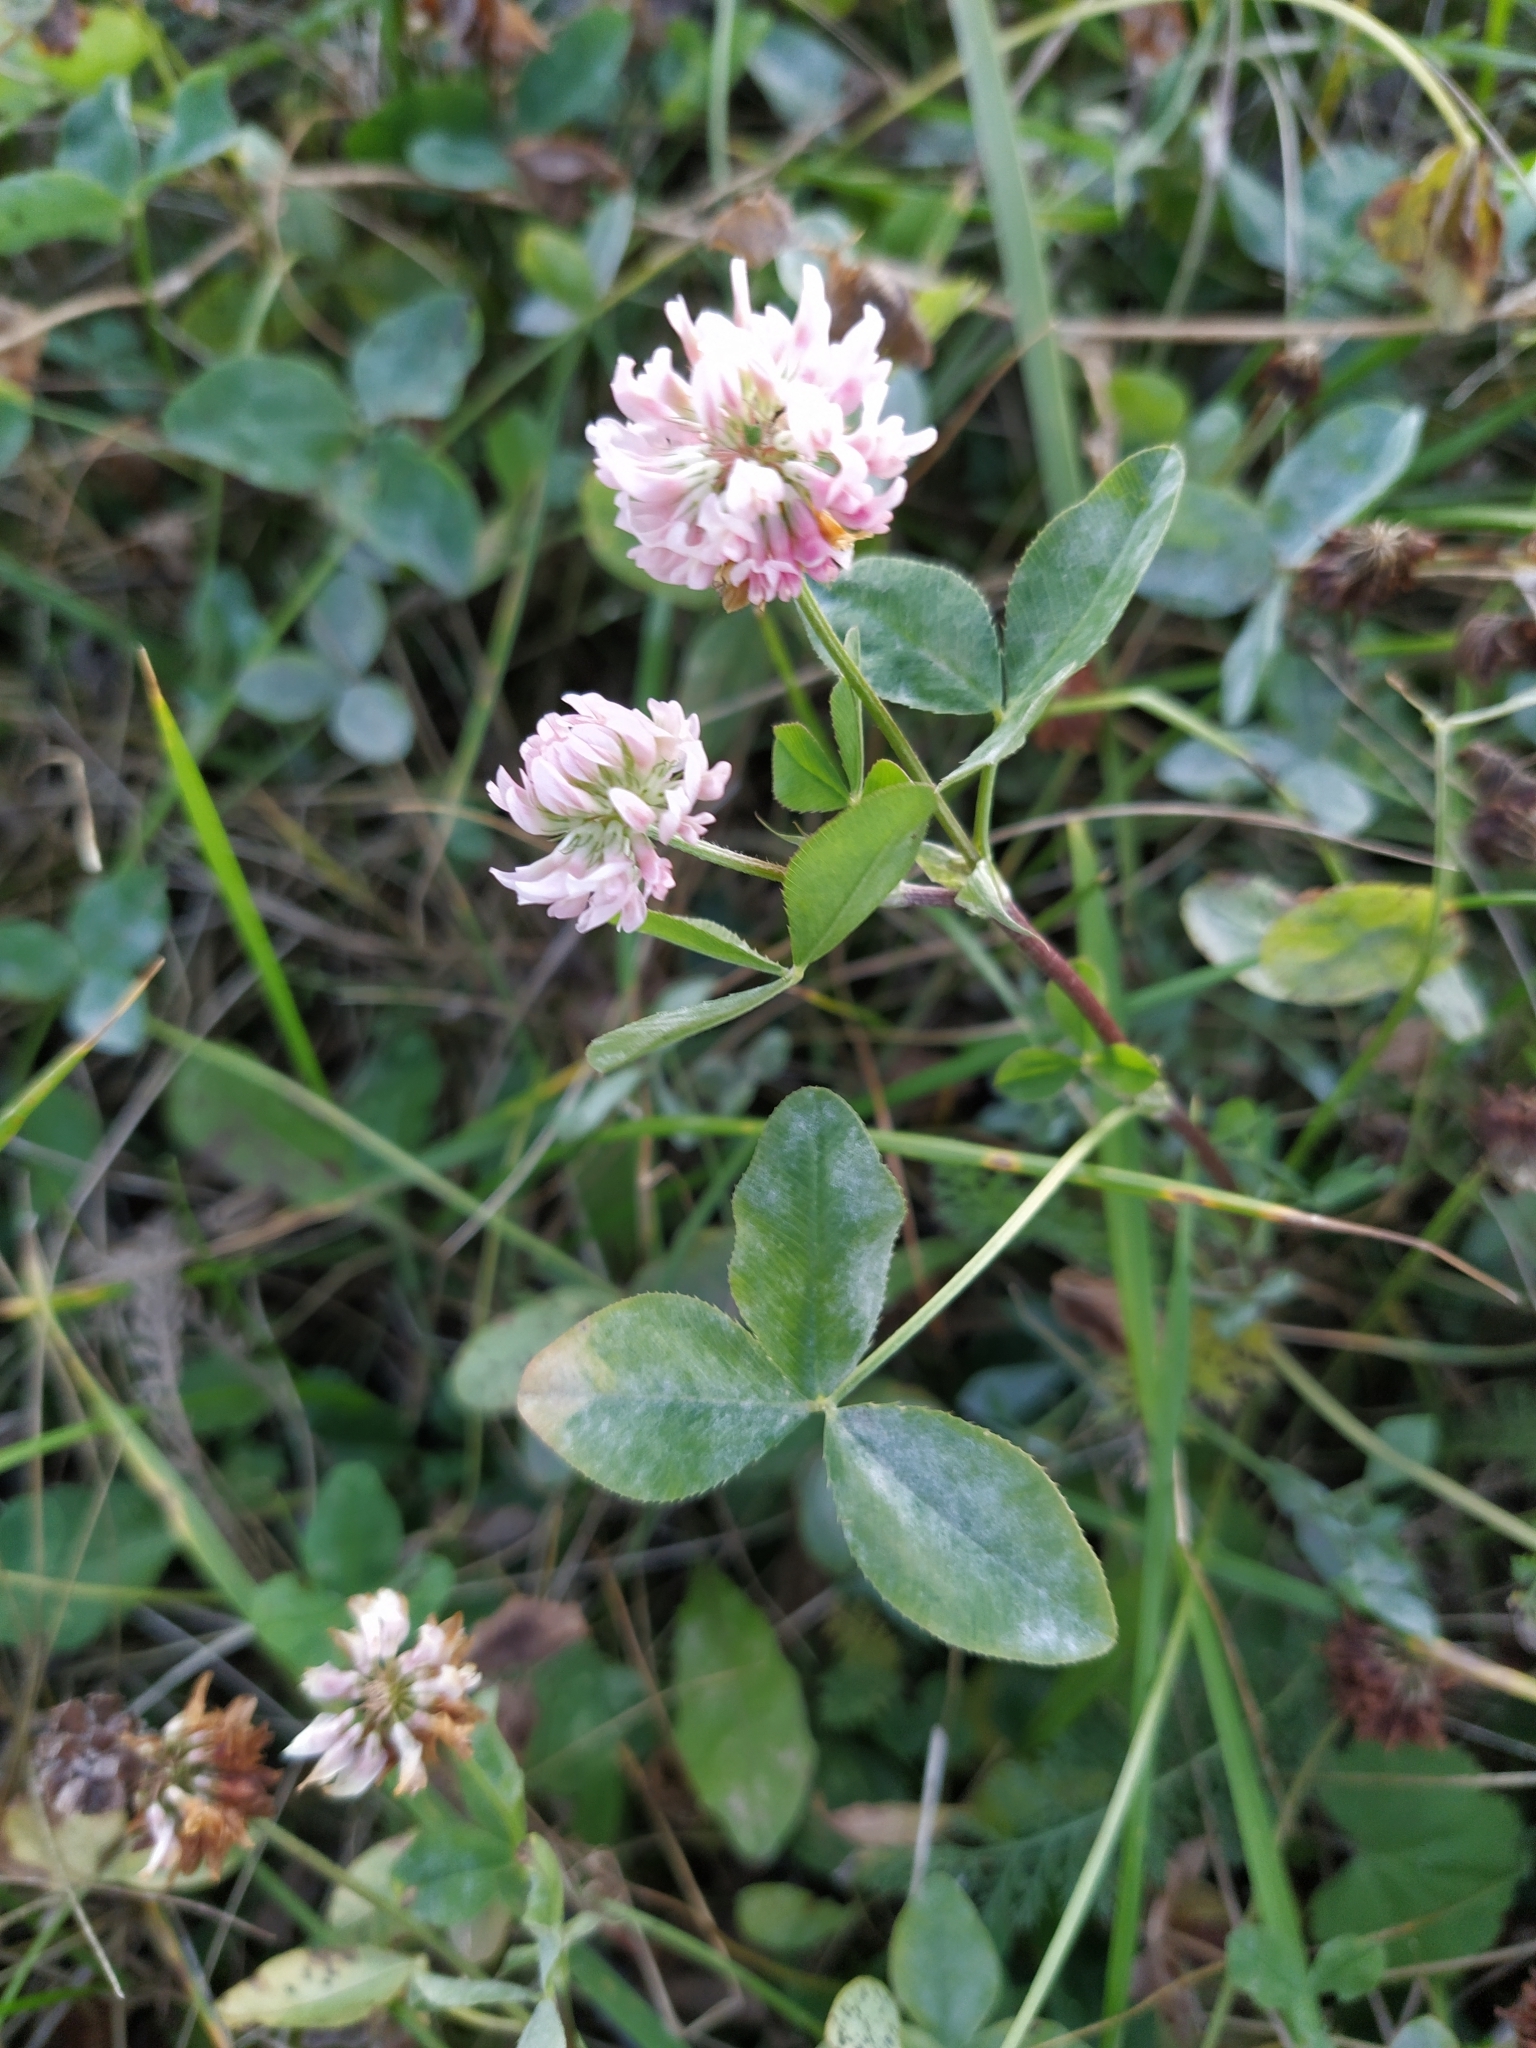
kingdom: Plantae
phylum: Tracheophyta
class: Magnoliopsida
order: Fabales
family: Fabaceae
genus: Trifolium
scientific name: Trifolium hybridum
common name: Alsike clover
